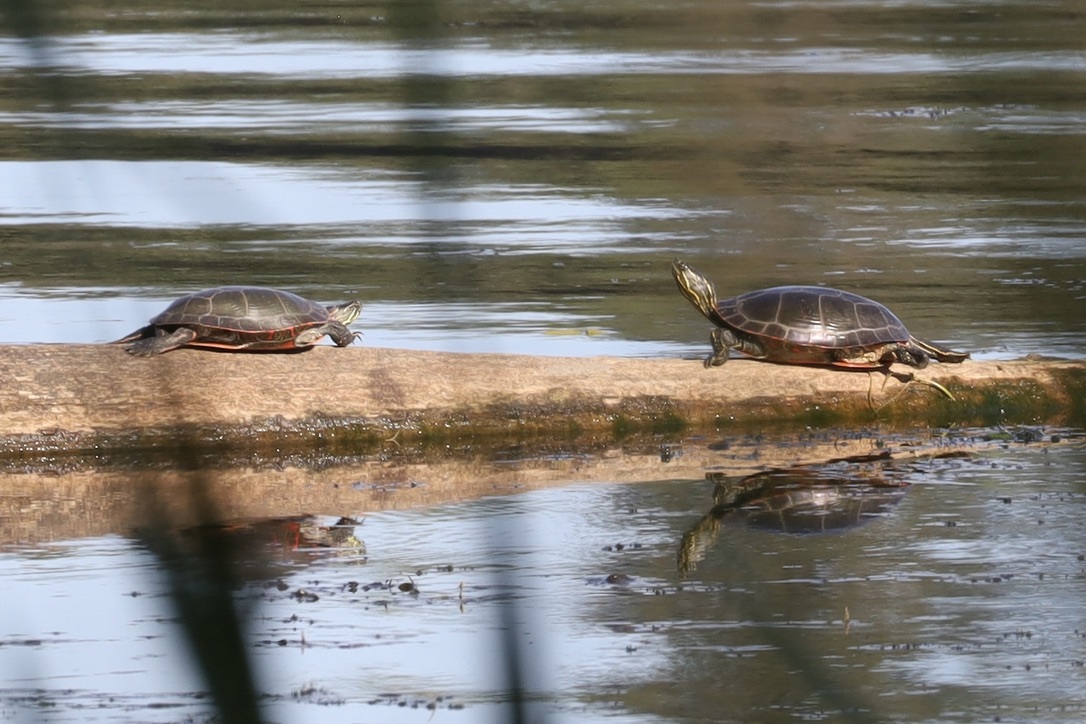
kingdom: Animalia
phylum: Chordata
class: Testudines
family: Emydidae
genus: Chrysemys
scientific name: Chrysemys picta
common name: Painted turtle
